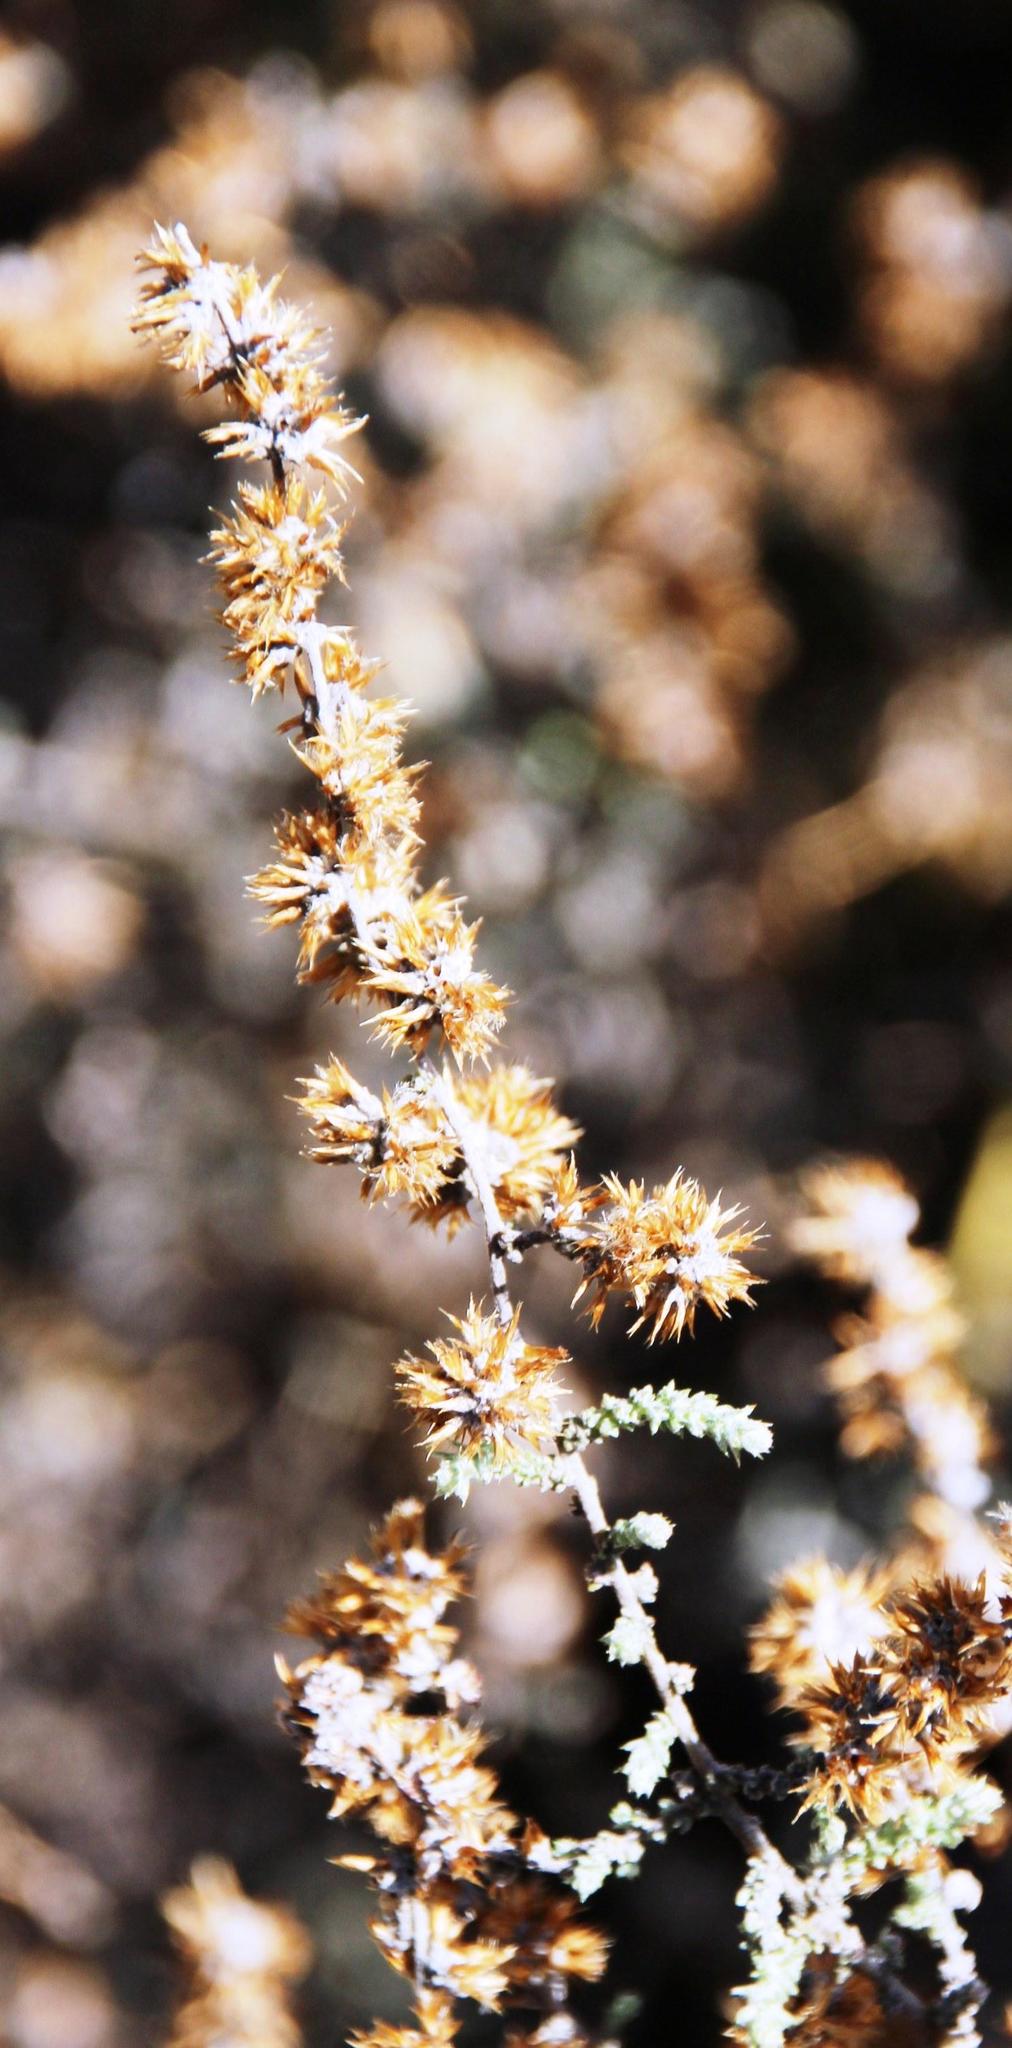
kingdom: Plantae
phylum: Tracheophyta
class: Magnoliopsida
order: Asterales
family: Asteraceae
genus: Seriphium
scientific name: Seriphium plumosum
